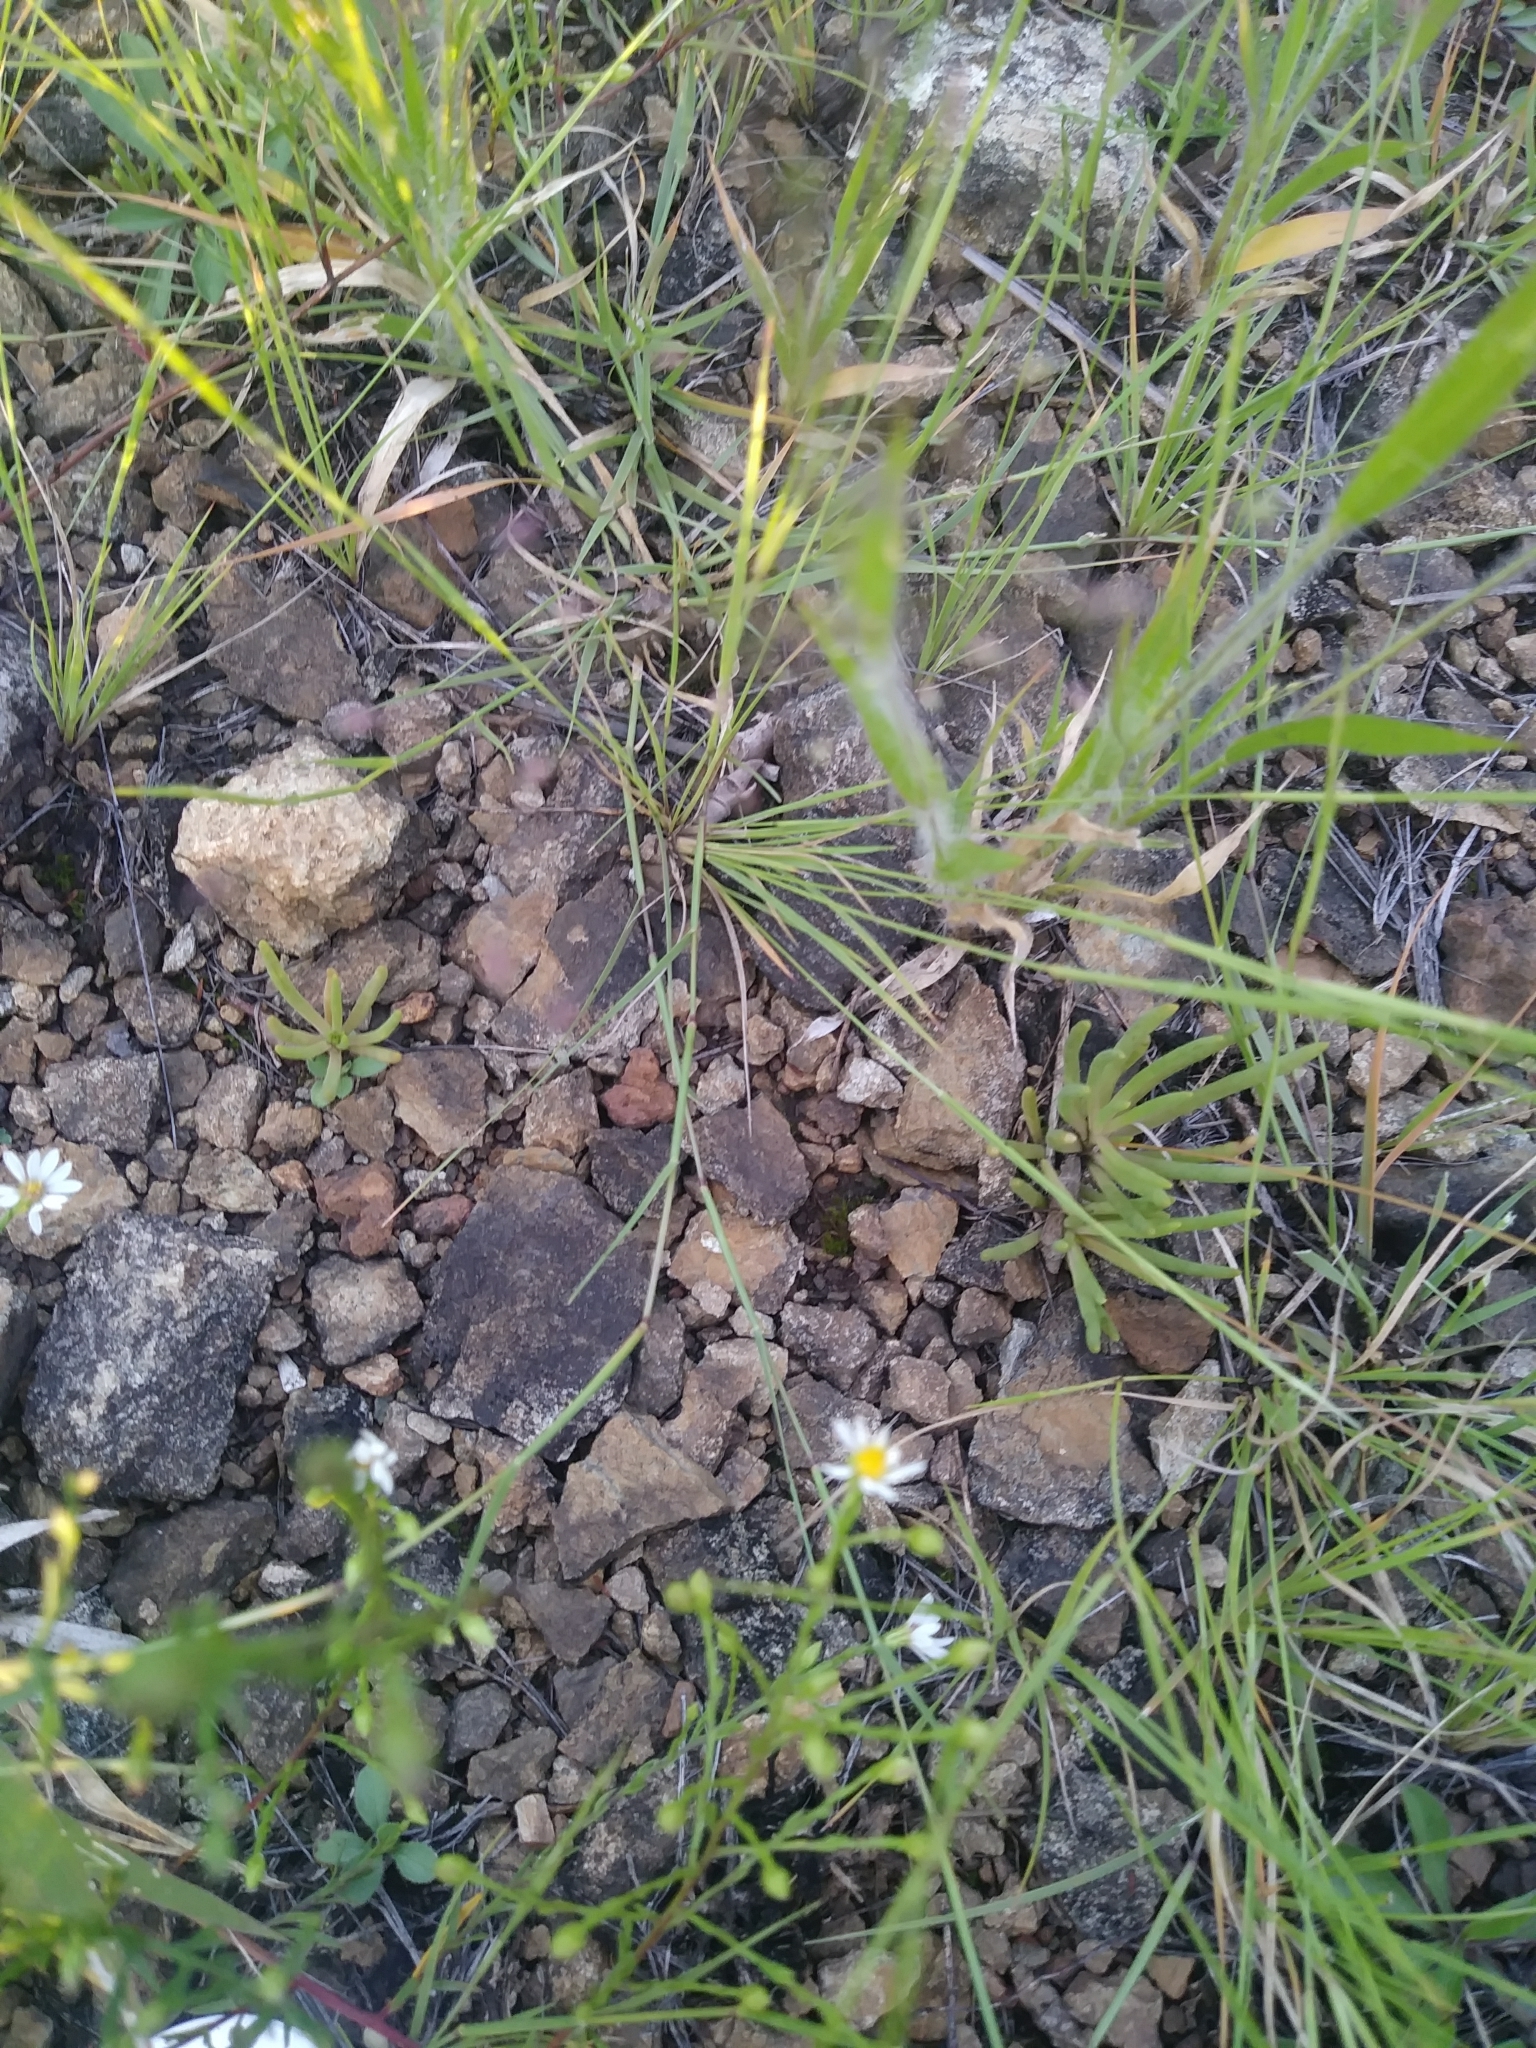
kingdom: Plantae
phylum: Tracheophyta
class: Magnoliopsida
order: Caryophyllales
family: Montiaceae
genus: Phemeranthus
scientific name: Phemeranthus teretifolius
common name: Quill fameflower
